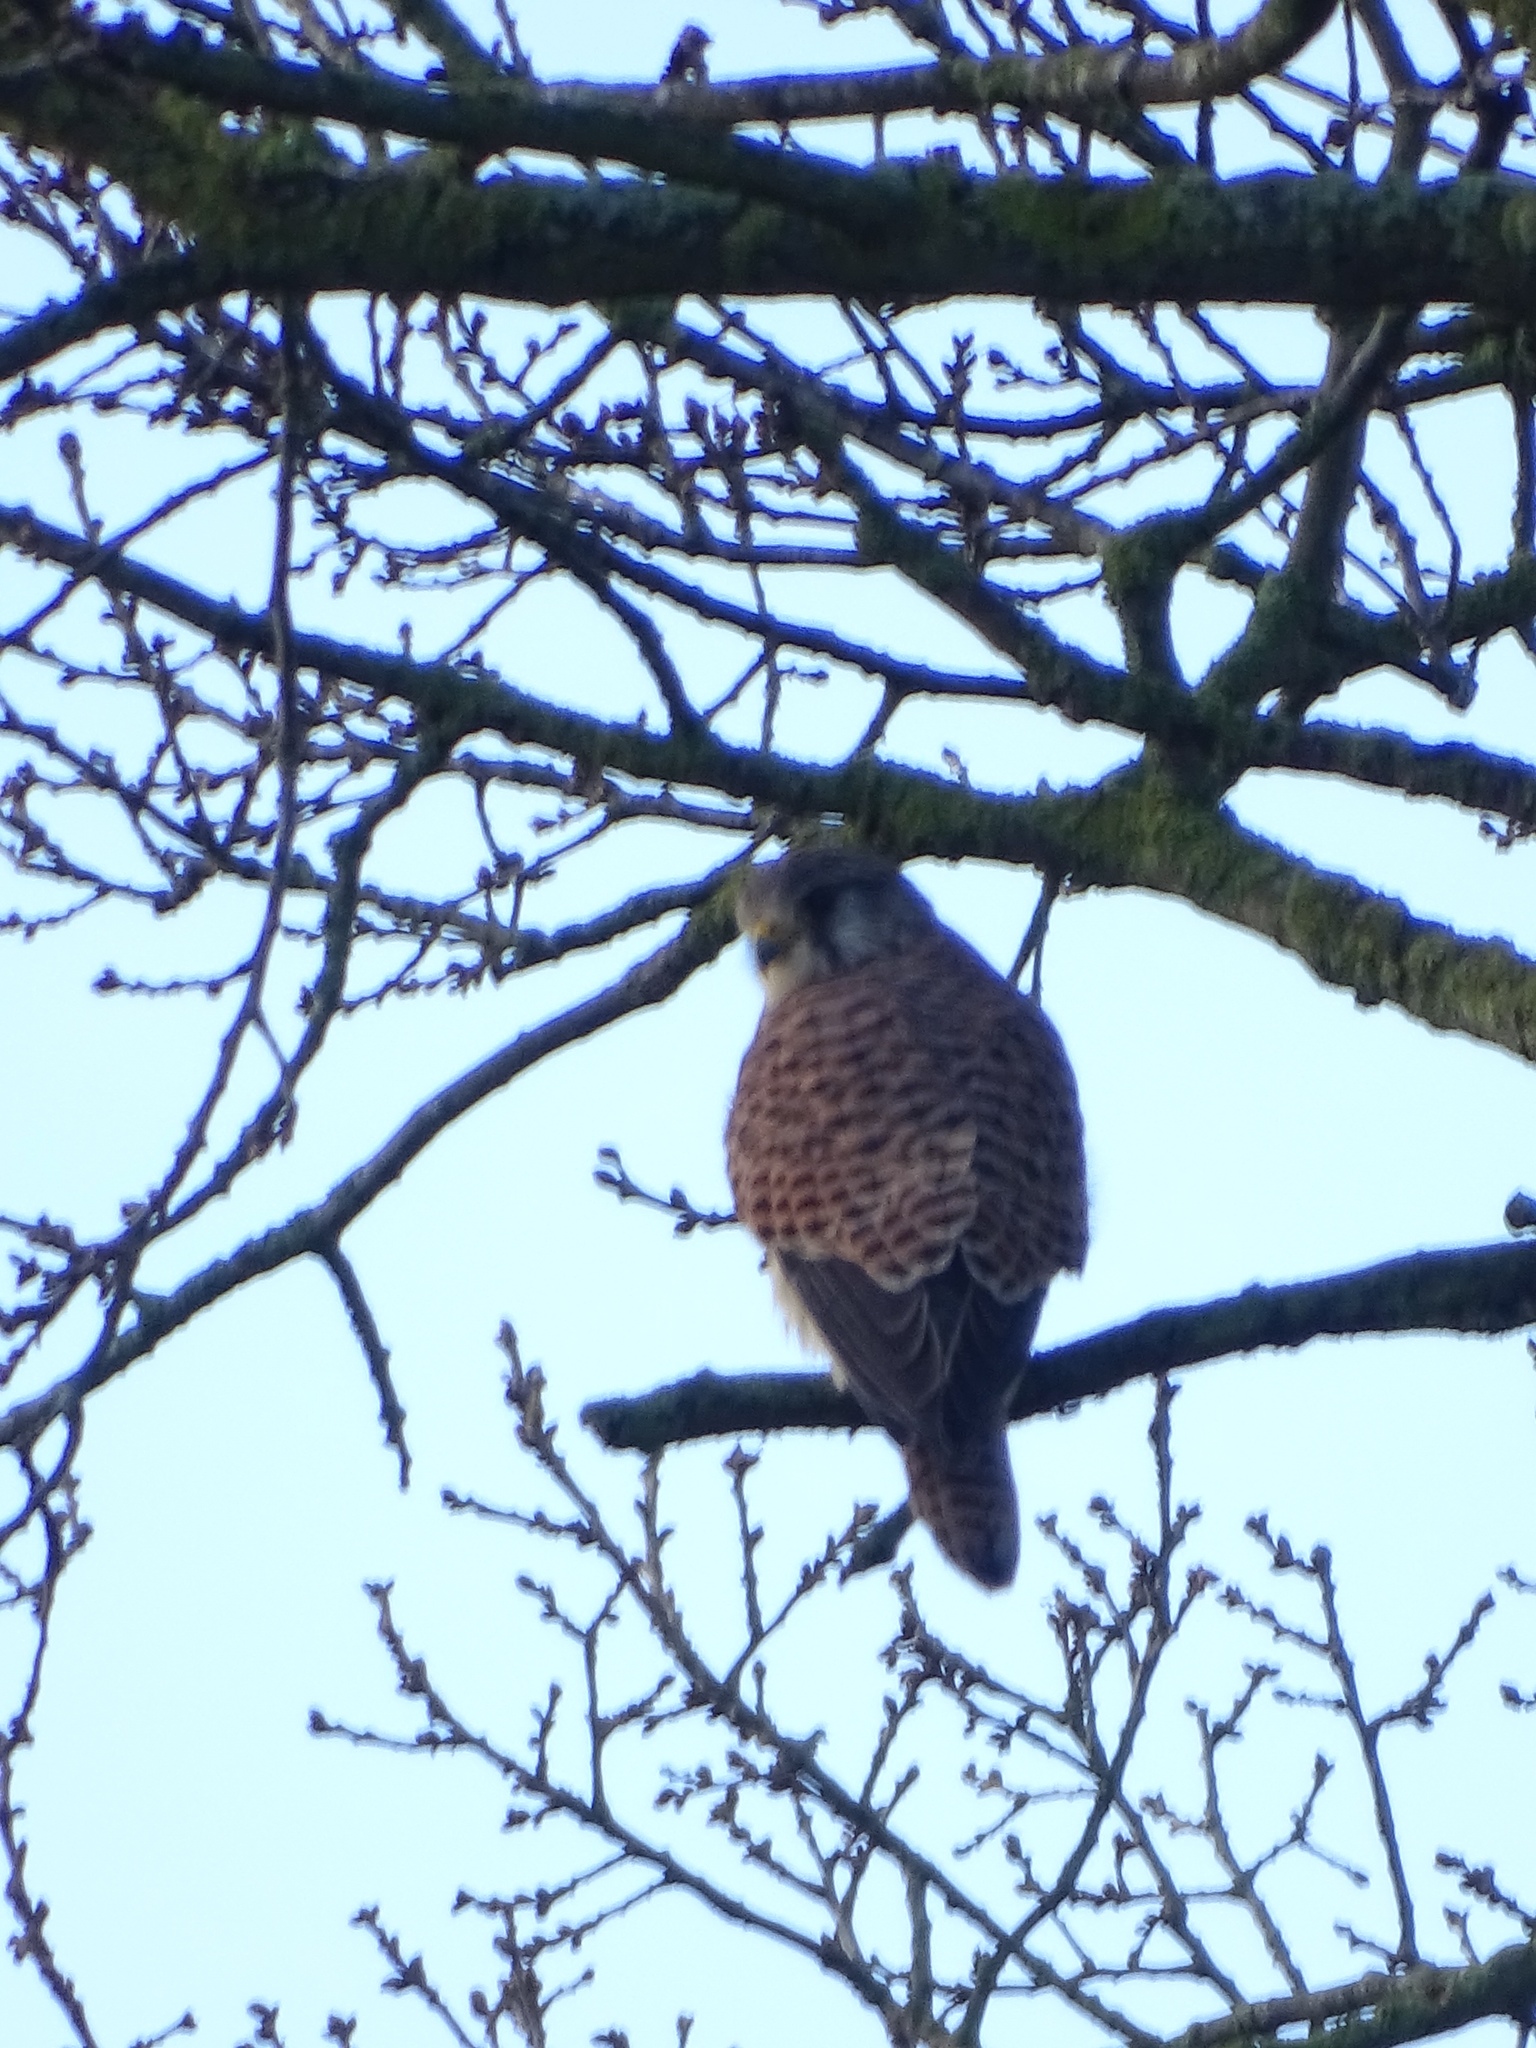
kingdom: Animalia
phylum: Chordata
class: Aves
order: Falconiformes
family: Falconidae
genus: Falco
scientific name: Falco tinnunculus
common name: Common kestrel
